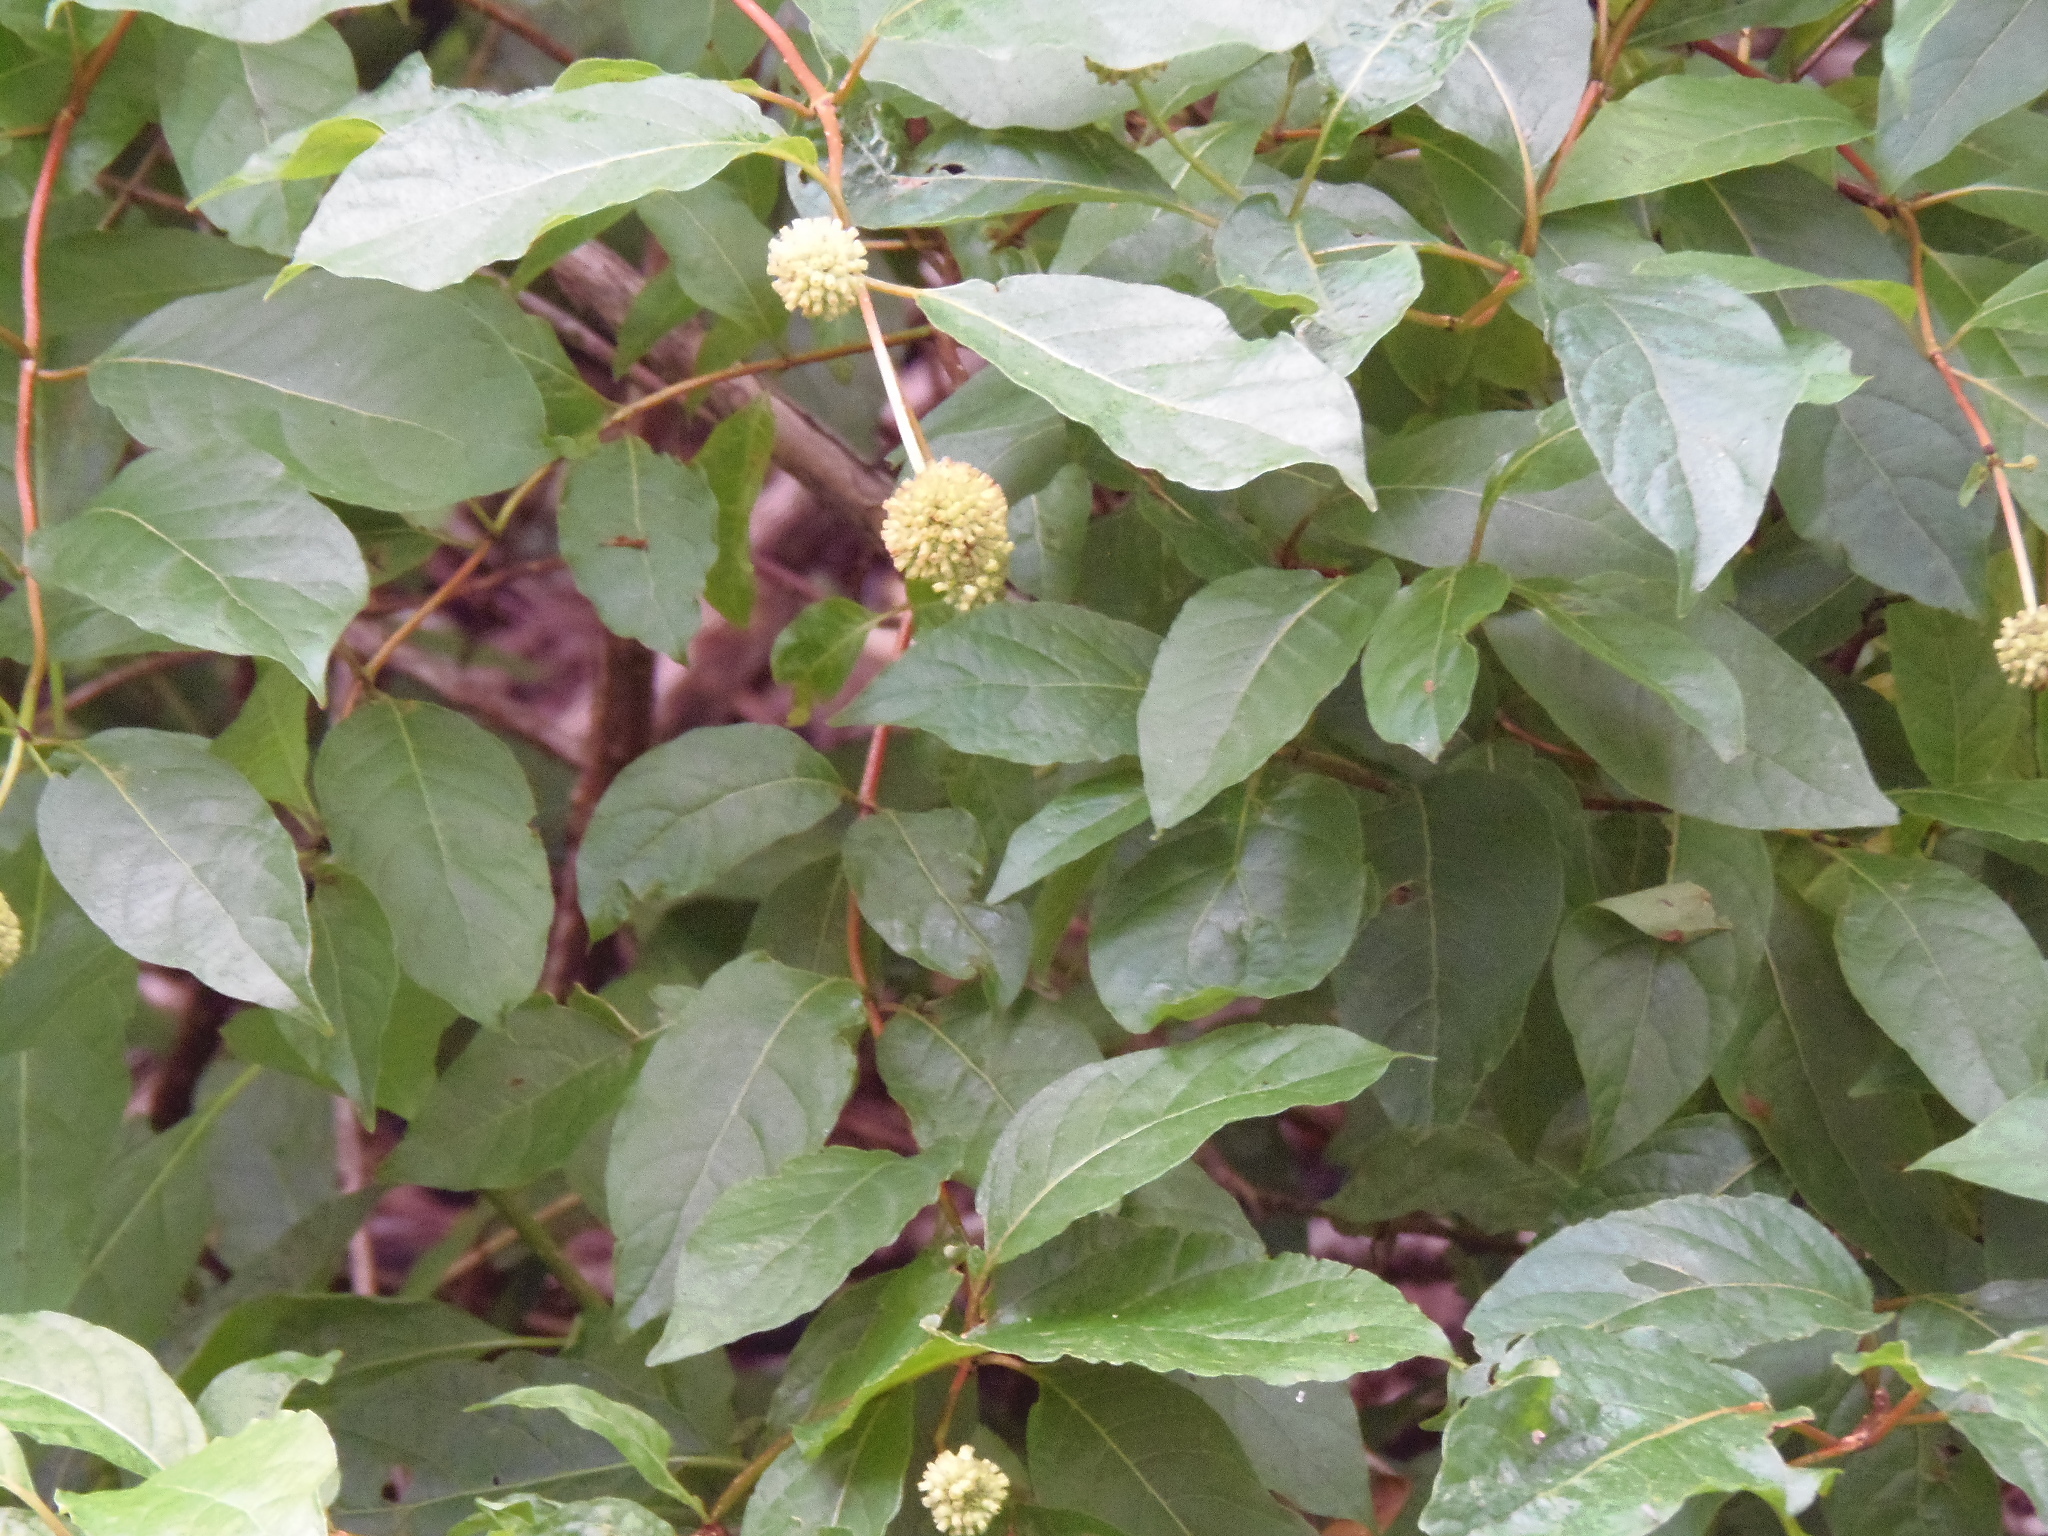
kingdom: Plantae
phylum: Tracheophyta
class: Magnoliopsida
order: Gentianales
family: Rubiaceae
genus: Cephalanthus
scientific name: Cephalanthus occidentalis
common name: Button-willow
